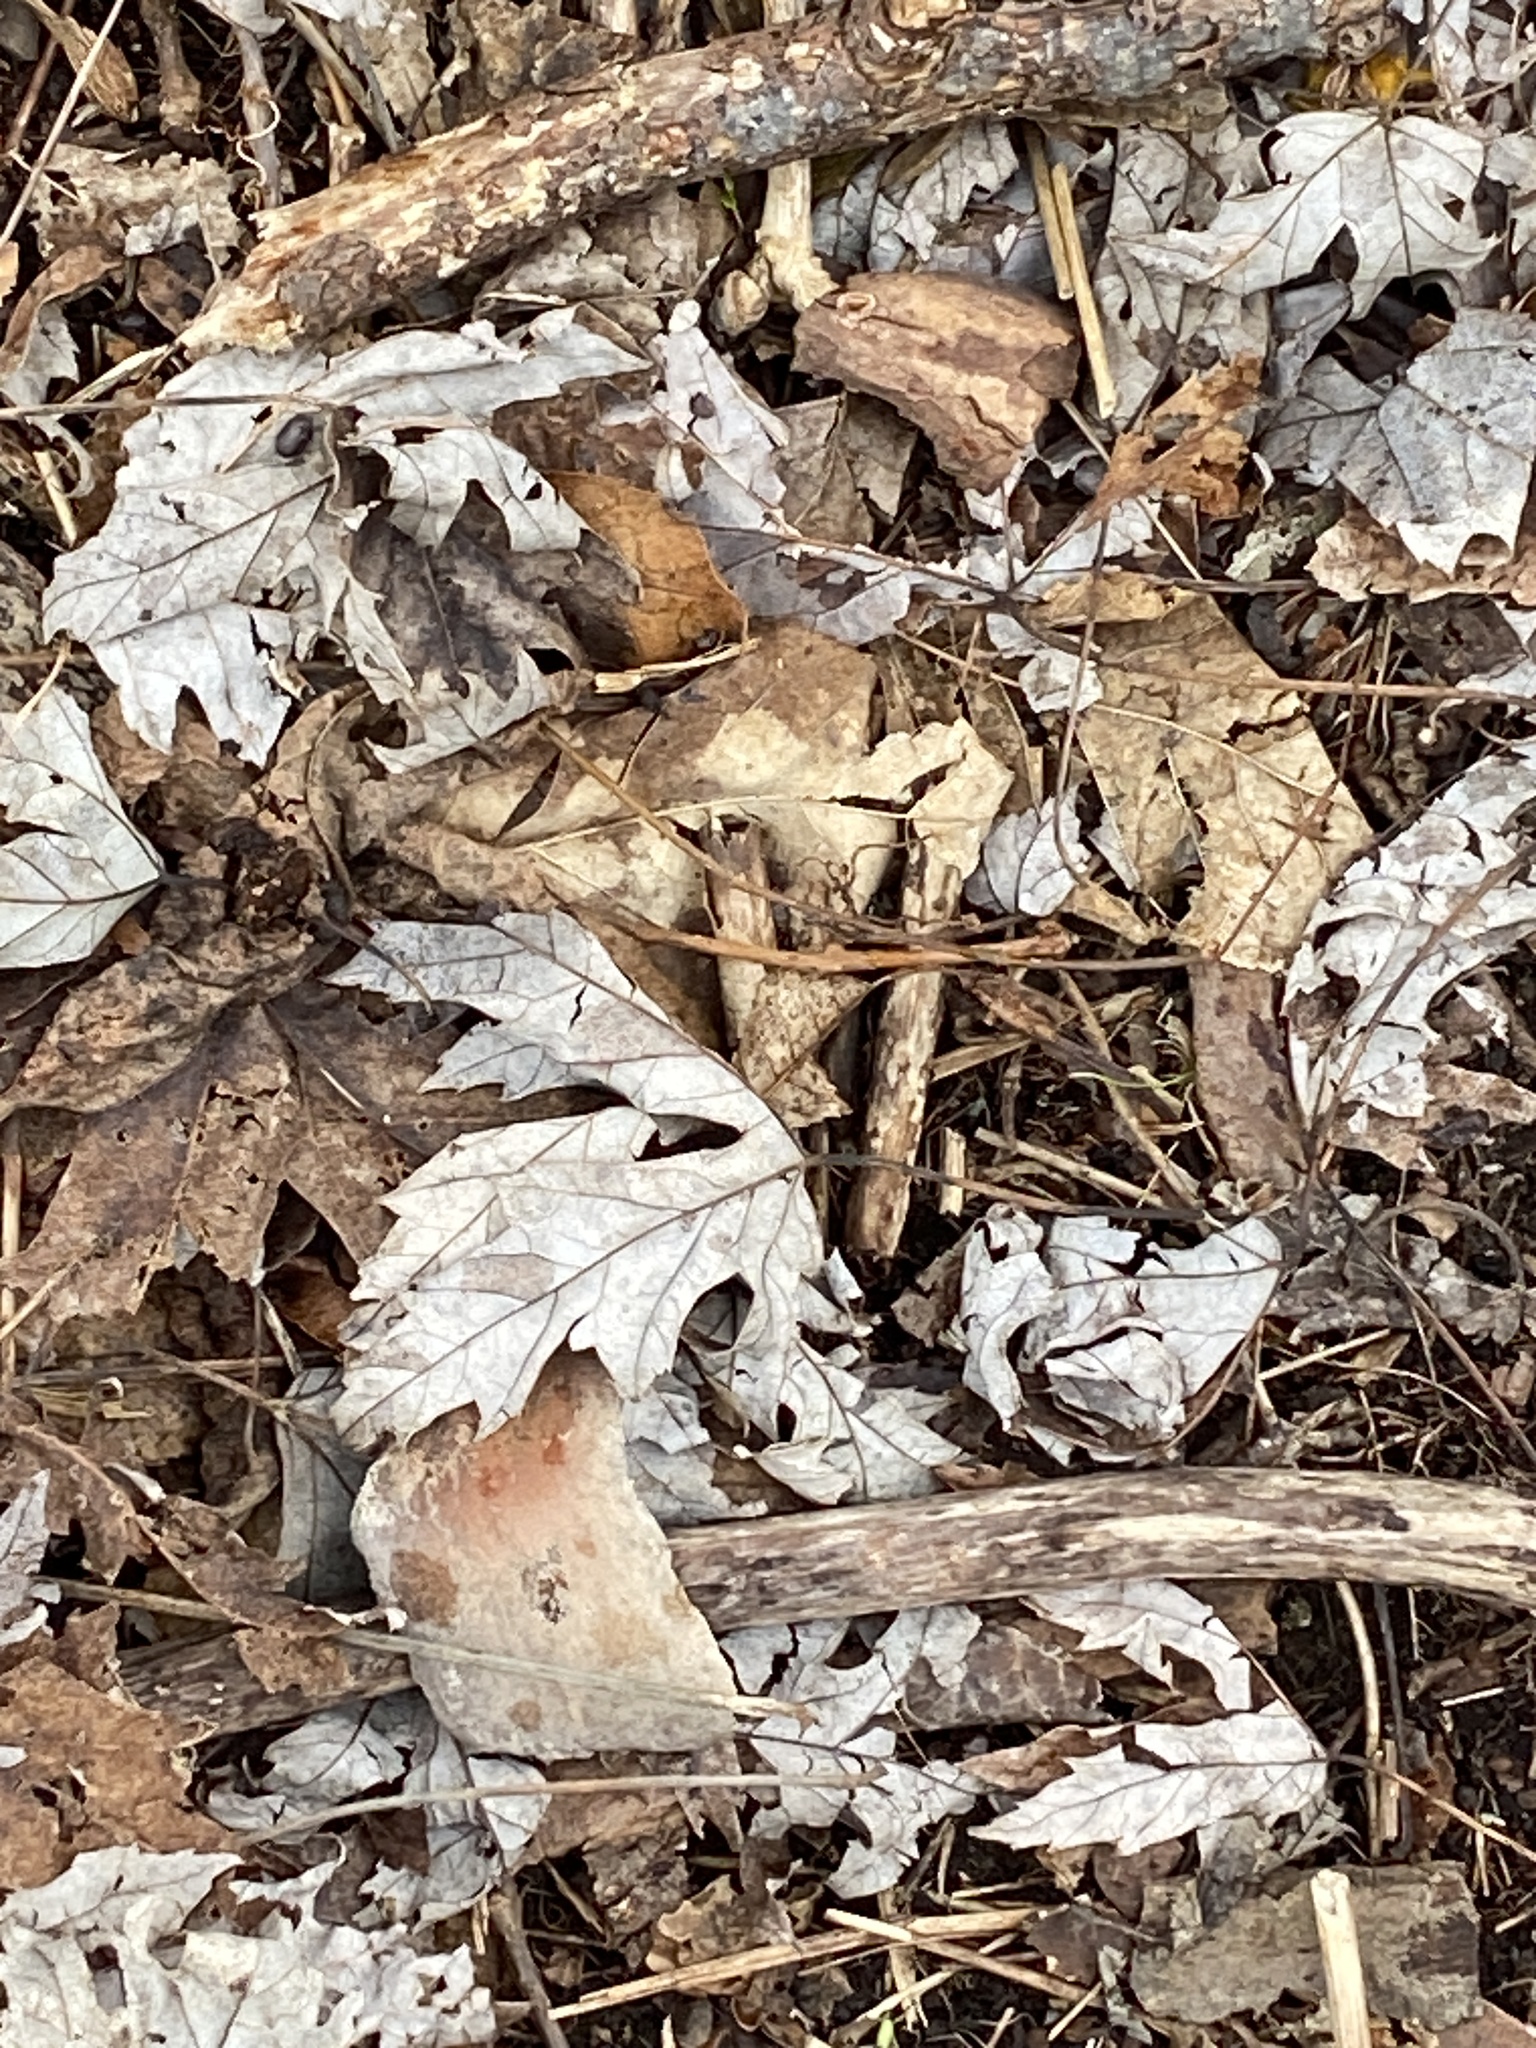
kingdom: Plantae
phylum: Tracheophyta
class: Magnoliopsida
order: Sapindales
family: Sapindaceae
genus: Acer
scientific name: Acer saccharinum
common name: Silver maple
